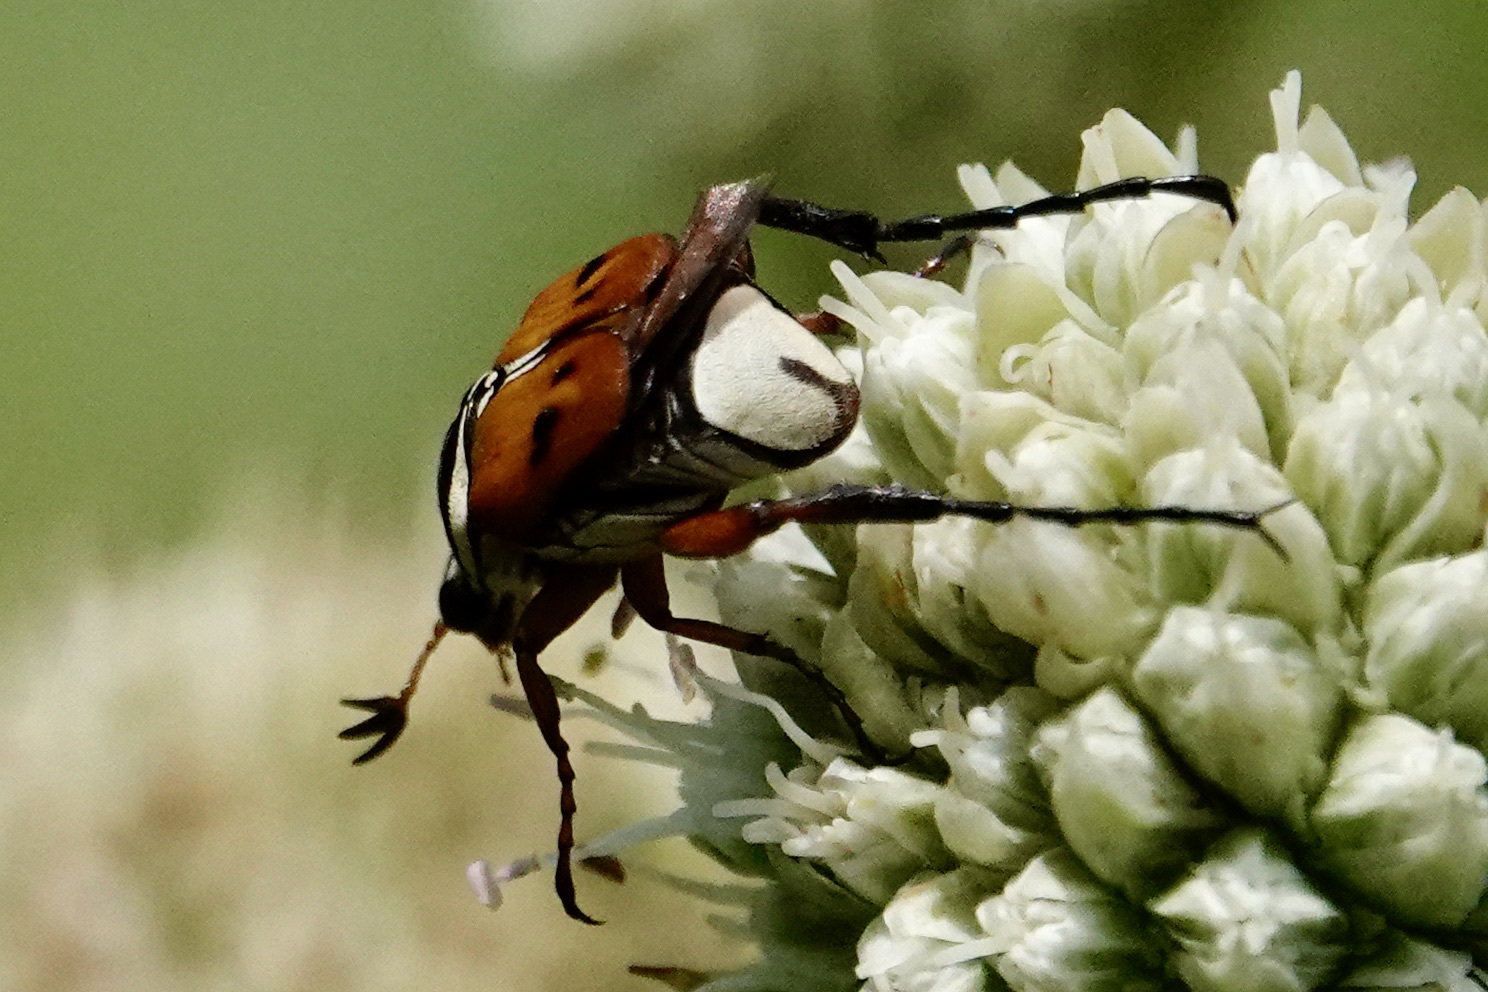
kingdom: Animalia
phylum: Arthropoda
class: Insecta
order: Coleoptera
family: Scarabaeidae
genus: Trigonopeltastes
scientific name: Trigonopeltastes delta
